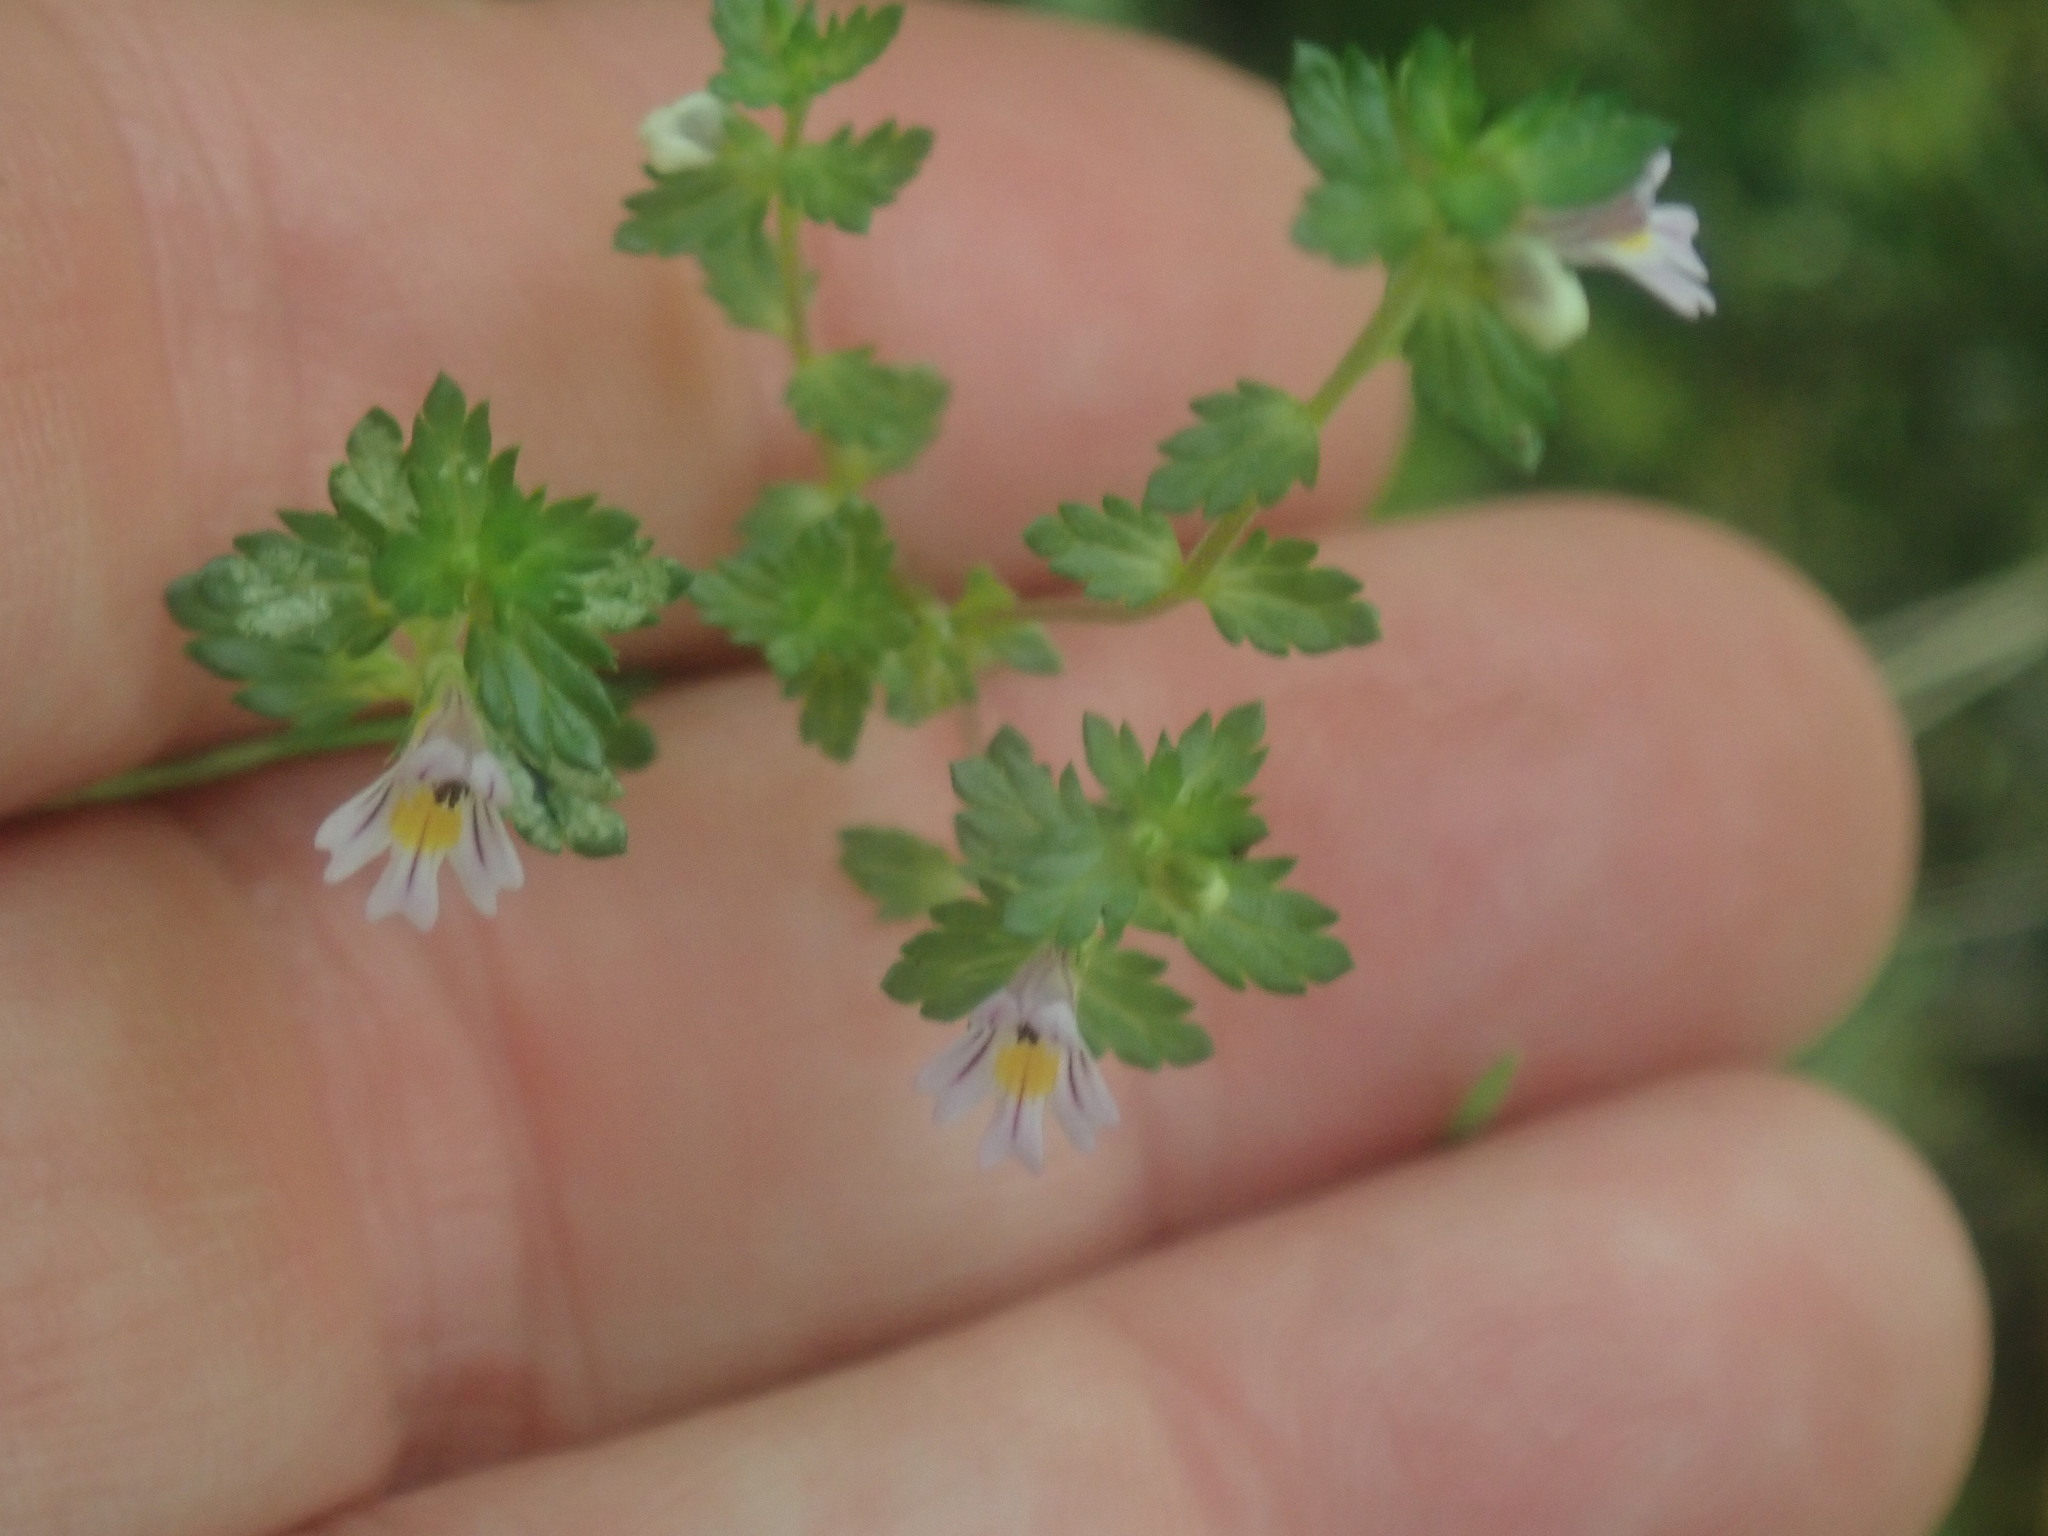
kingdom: Plantae
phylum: Tracheophyta
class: Magnoliopsida
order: Lamiales
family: Orobanchaceae
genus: Euphrasia
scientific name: Euphrasia
